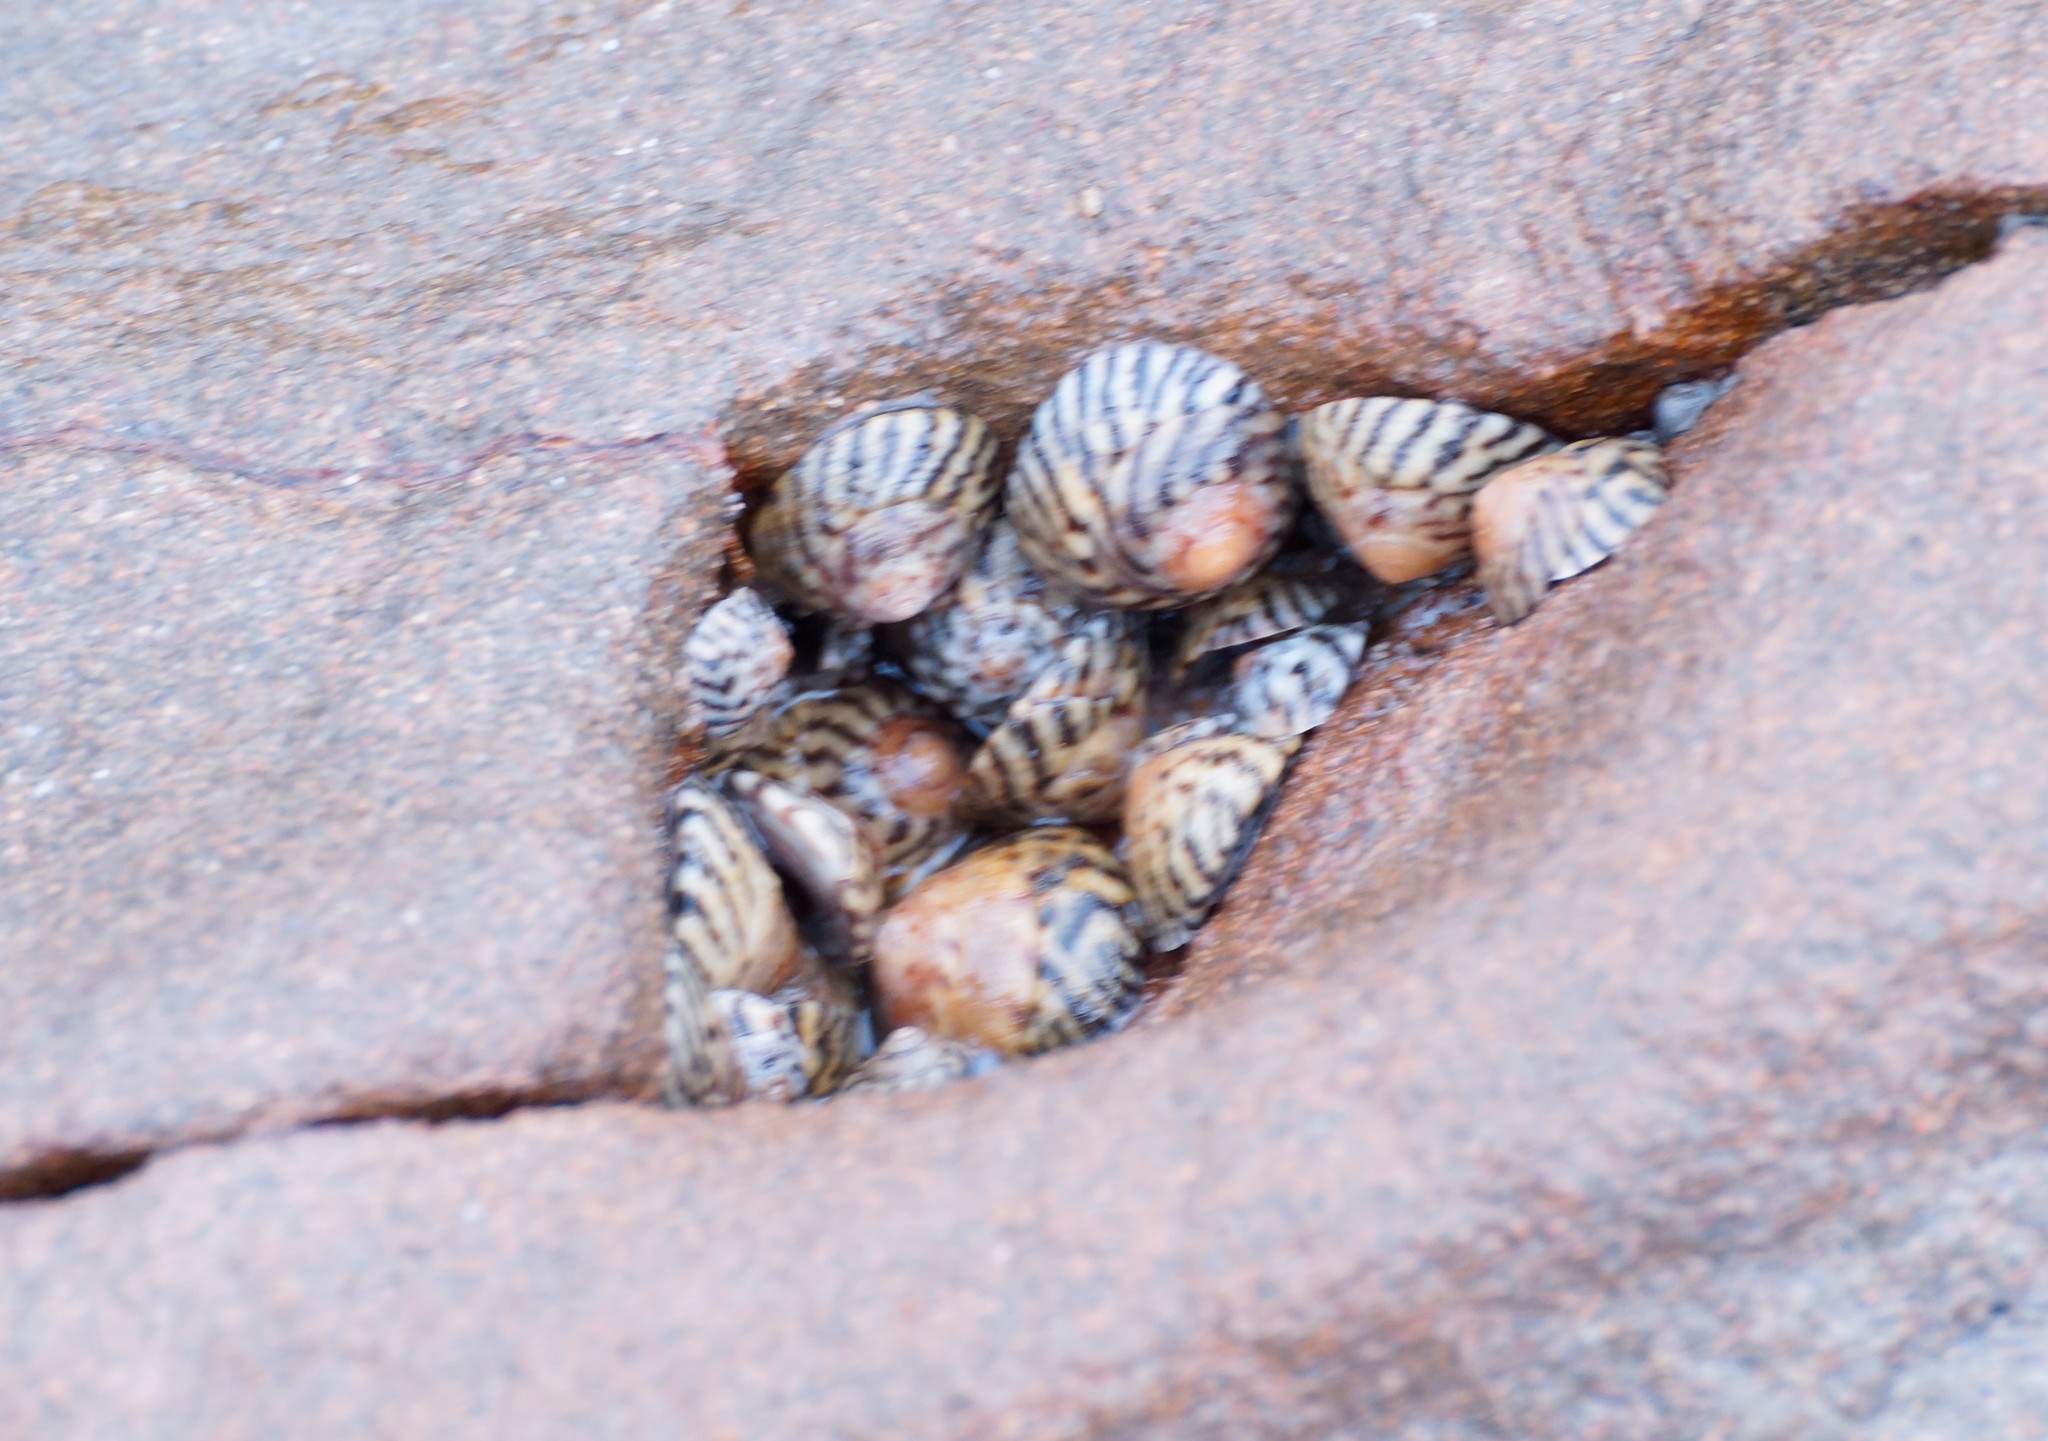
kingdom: Animalia
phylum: Mollusca
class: Gastropoda
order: Littorinimorpha
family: Littorinidae
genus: Bembicium
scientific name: Bembicium nanum
